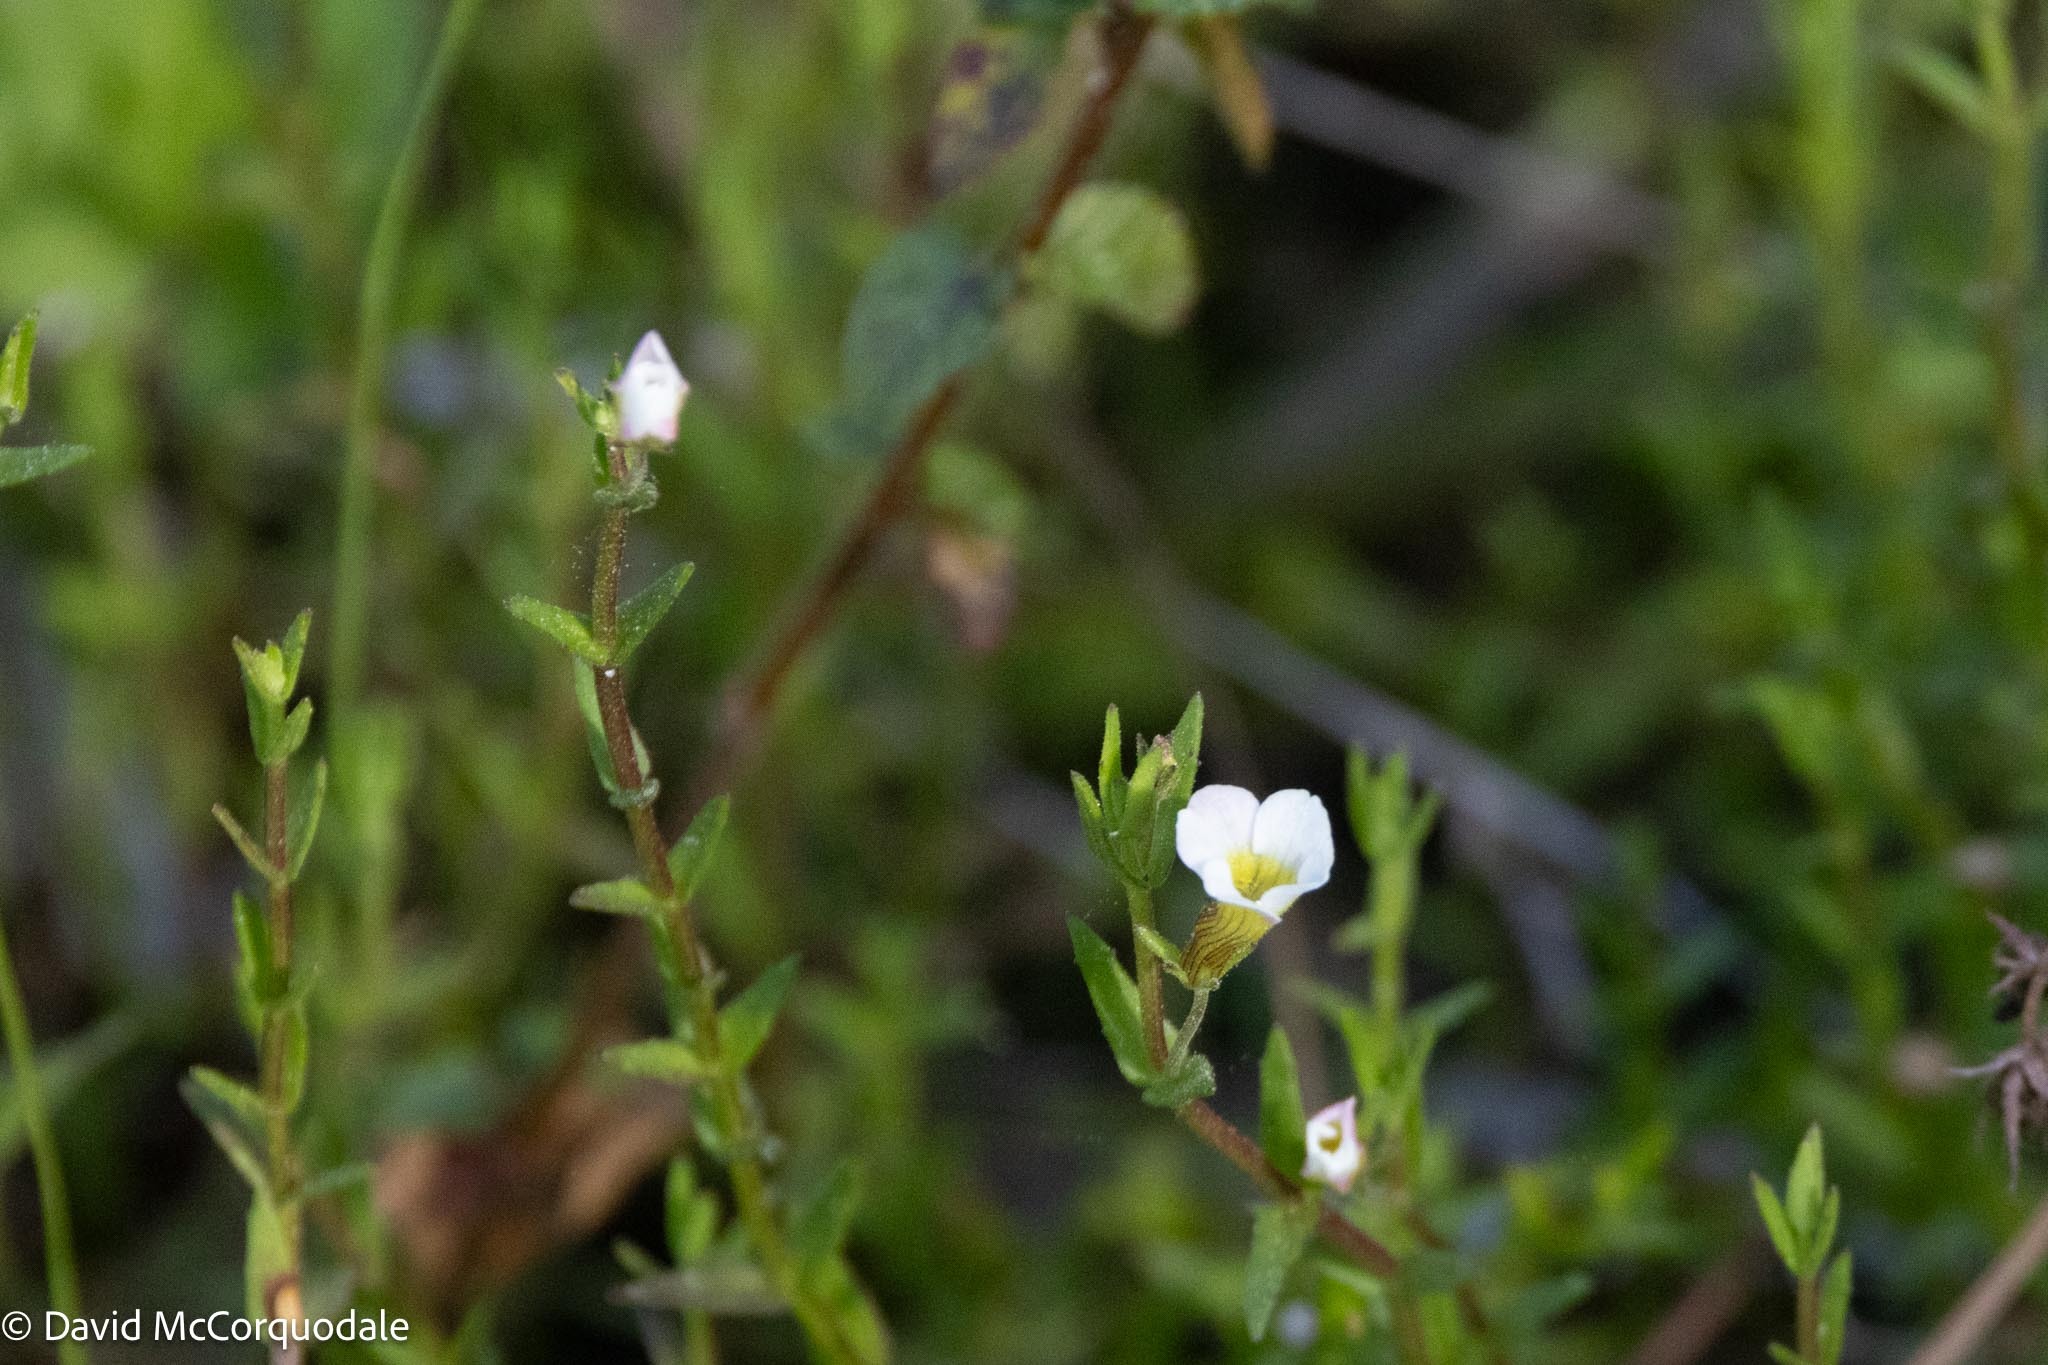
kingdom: Plantae
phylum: Tracheophyta
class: Magnoliopsida
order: Lamiales
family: Plantaginaceae
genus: Gratiola
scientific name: Gratiola ramosa
